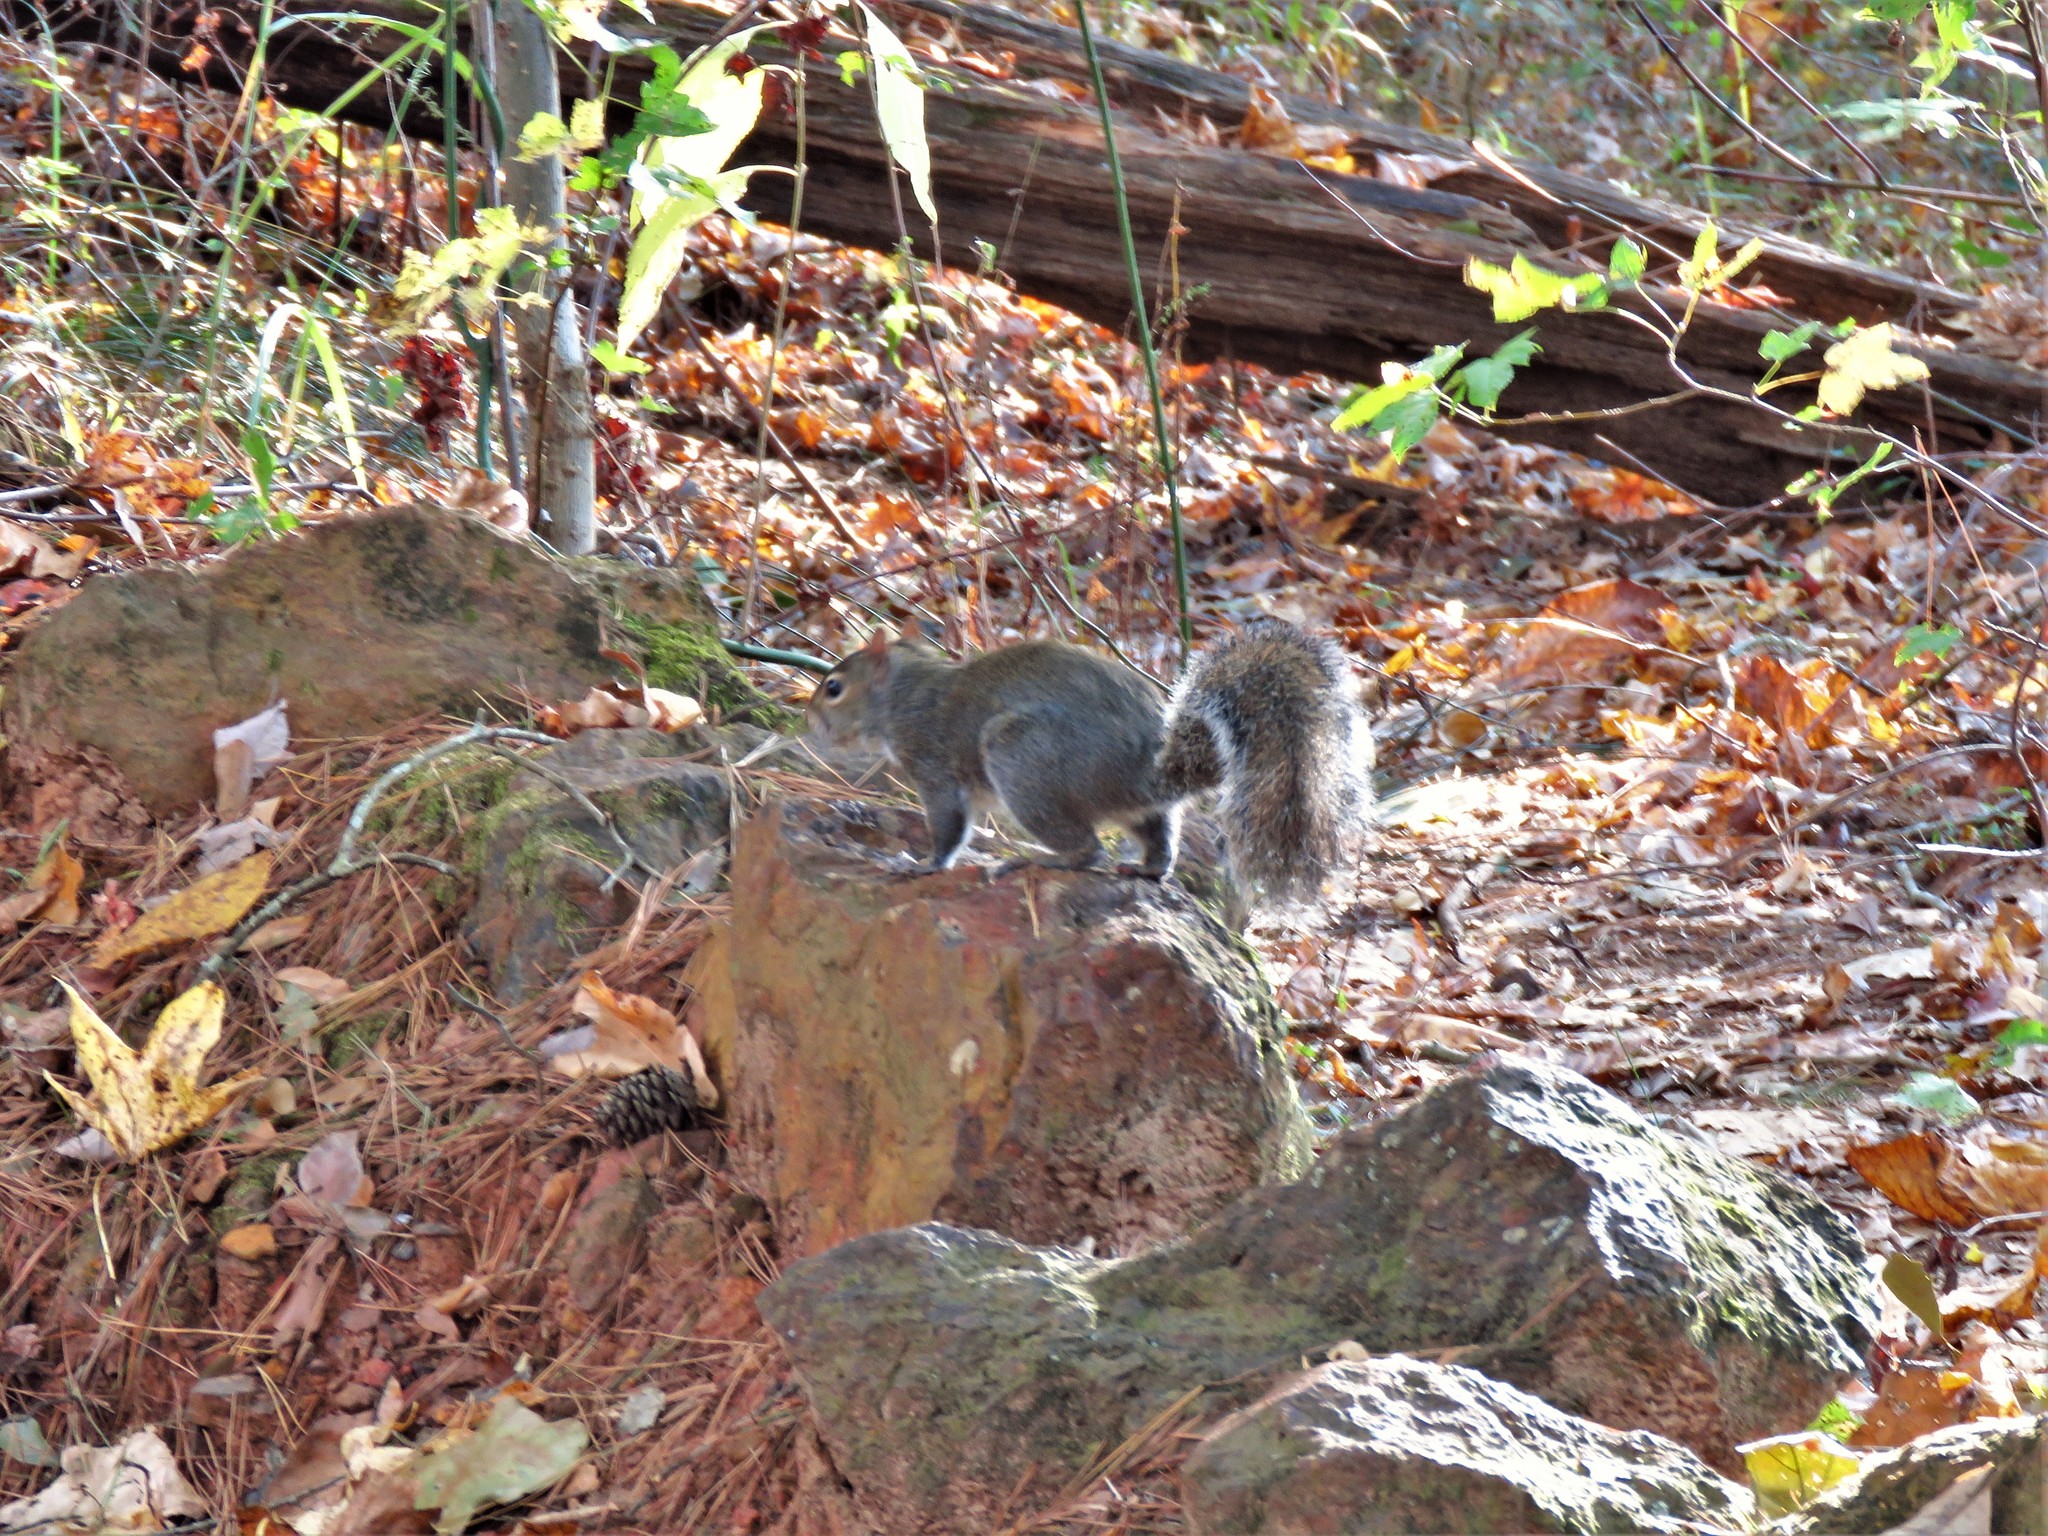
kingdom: Animalia
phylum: Chordata
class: Mammalia
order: Rodentia
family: Sciuridae
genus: Sciurus
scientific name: Sciurus carolinensis
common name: Eastern gray squirrel
